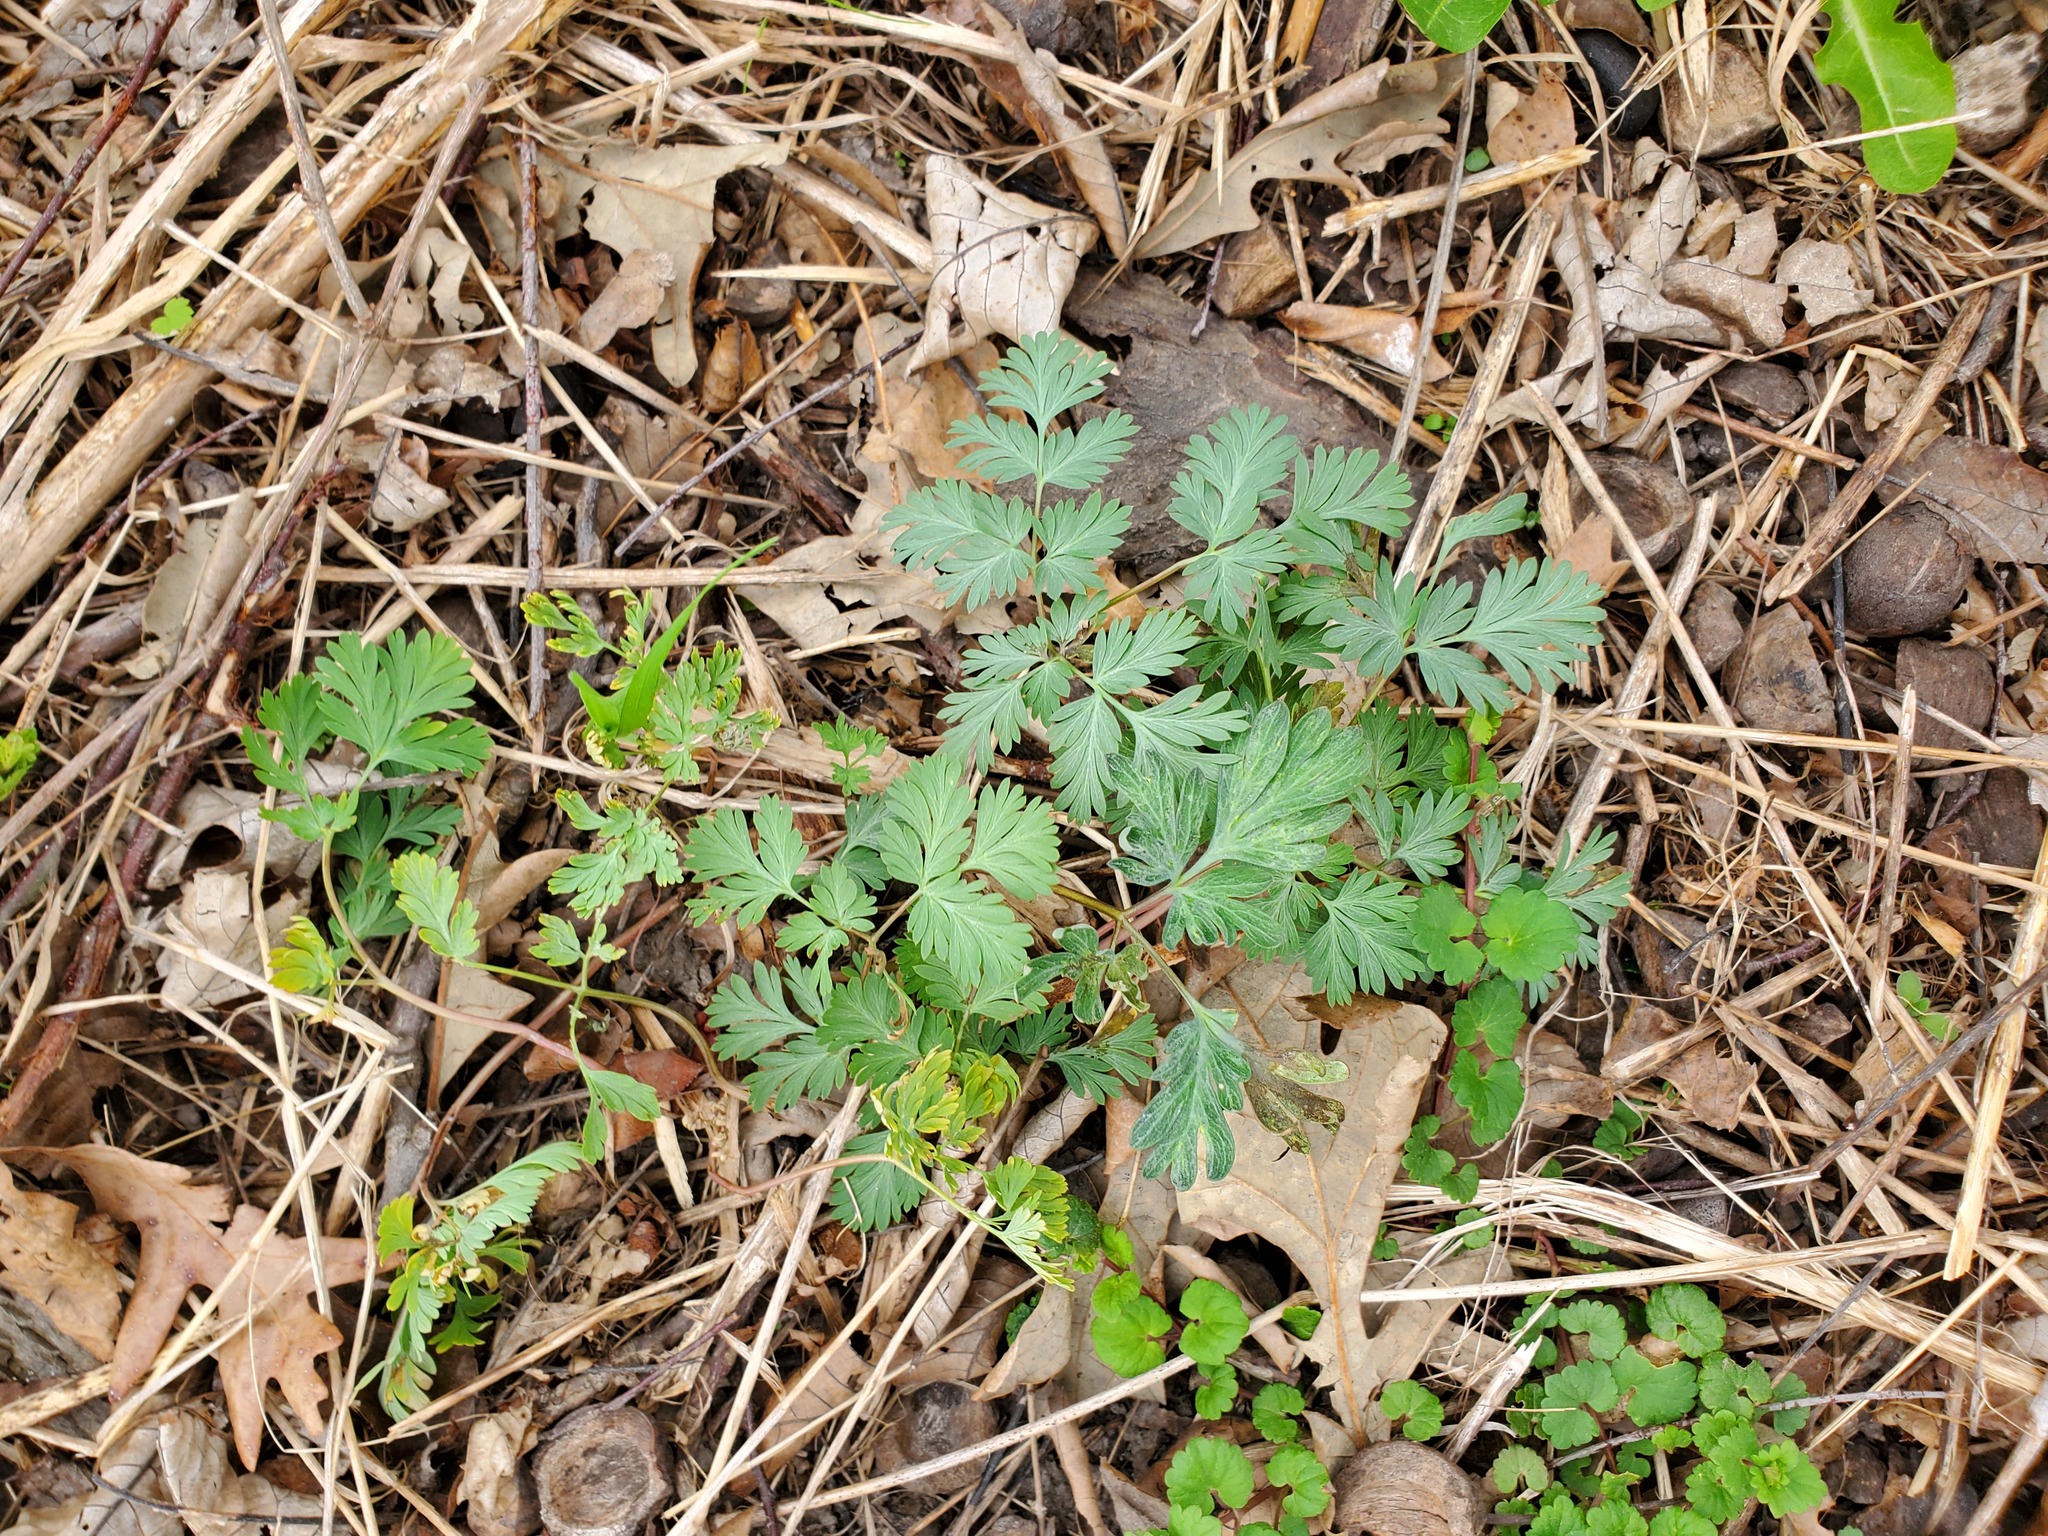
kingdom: Plantae
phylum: Tracheophyta
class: Magnoliopsida
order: Ranunculales
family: Papaveraceae
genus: Dicentra
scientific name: Dicentra cucullaria
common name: Dutchman's breeches
